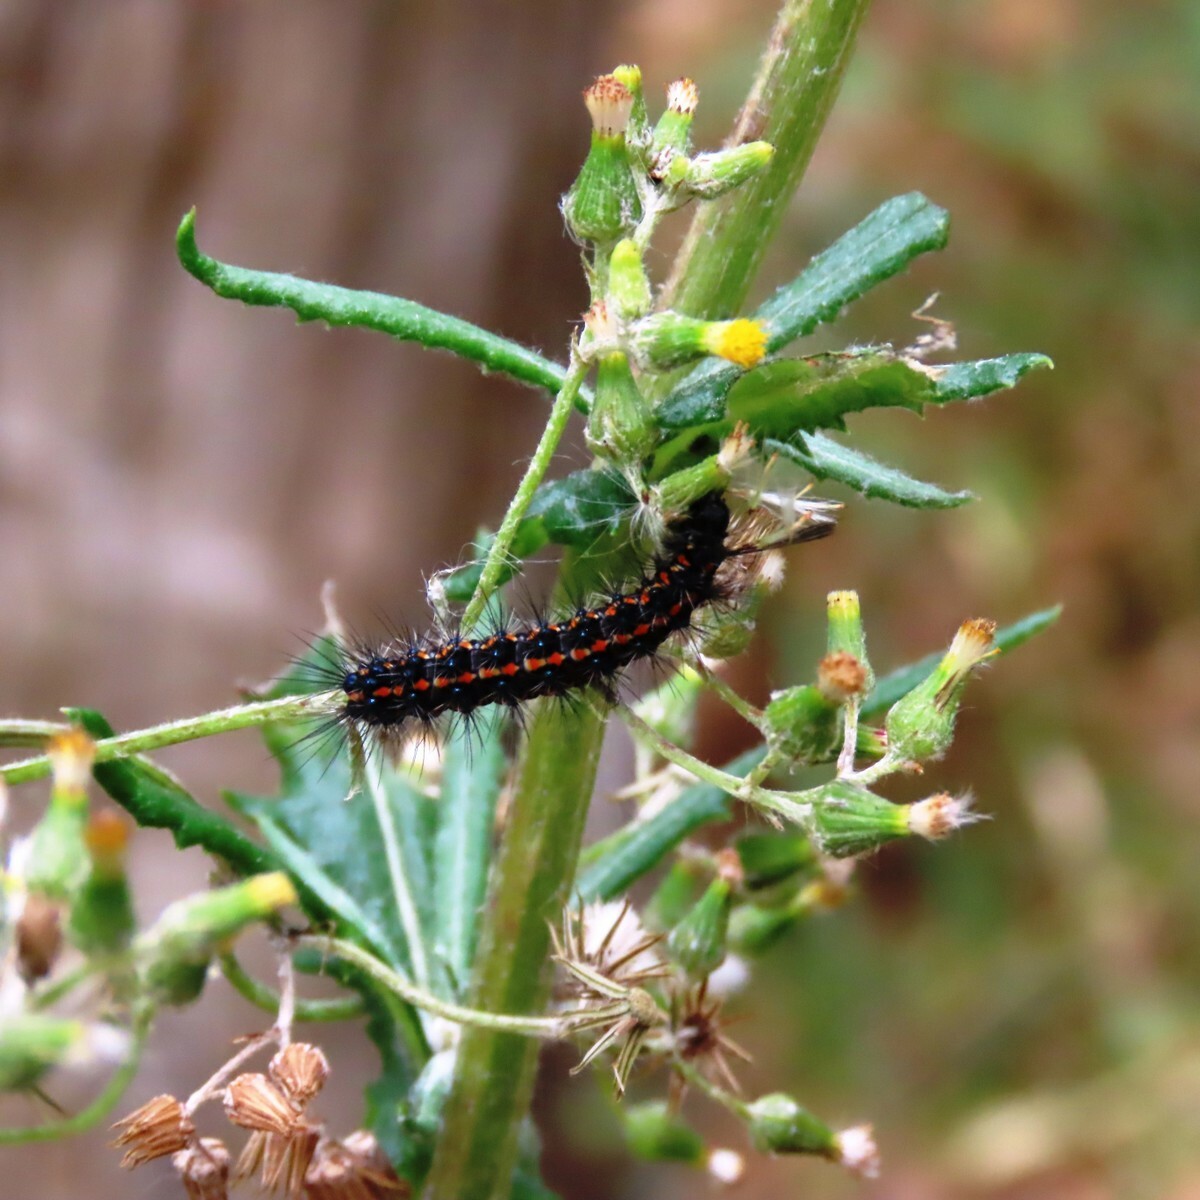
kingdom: Animalia
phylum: Arthropoda
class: Insecta
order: Lepidoptera
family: Erebidae
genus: Nyctemera
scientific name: Nyctemera amicus
